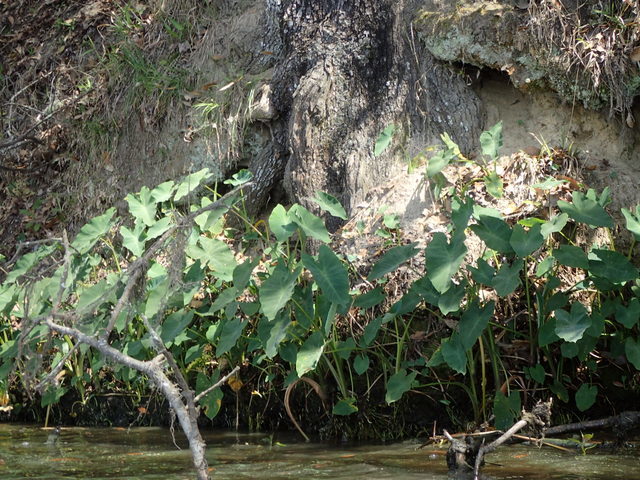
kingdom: Plantae
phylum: Tracheophyta
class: Liliopsida
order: Alismatales
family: Araceae
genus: Colocasia
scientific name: Colocasia esculenta
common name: Taro
